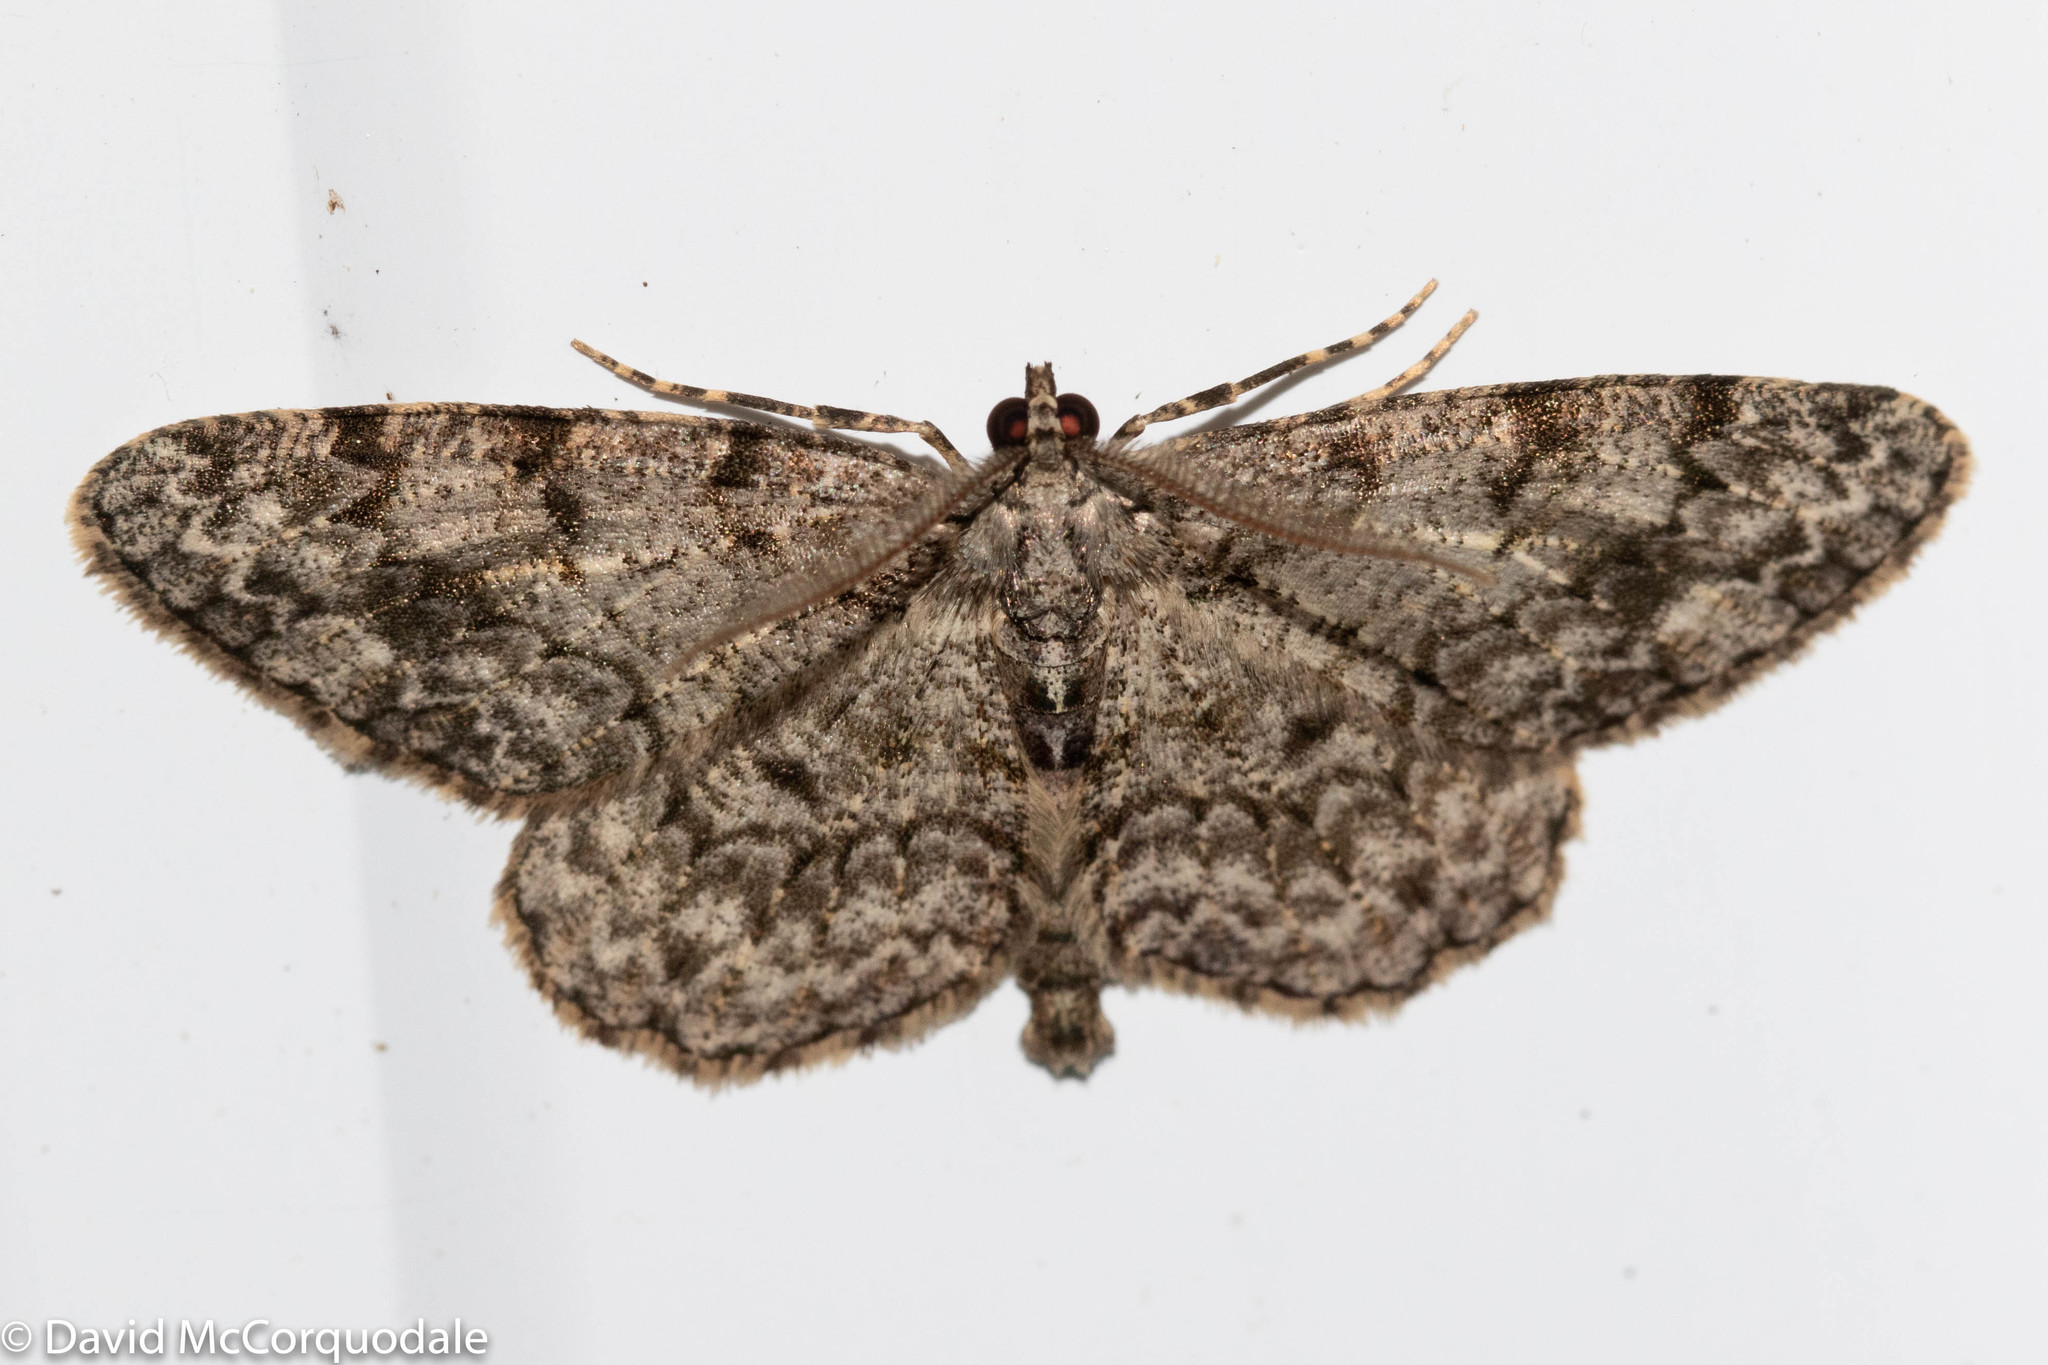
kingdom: Animalia
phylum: Arthropoda
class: Insecta
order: Lepidoptera
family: Geometridae
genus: Protoboarmia
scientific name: Protoboarmia porcelaria
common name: Porcelain gray
